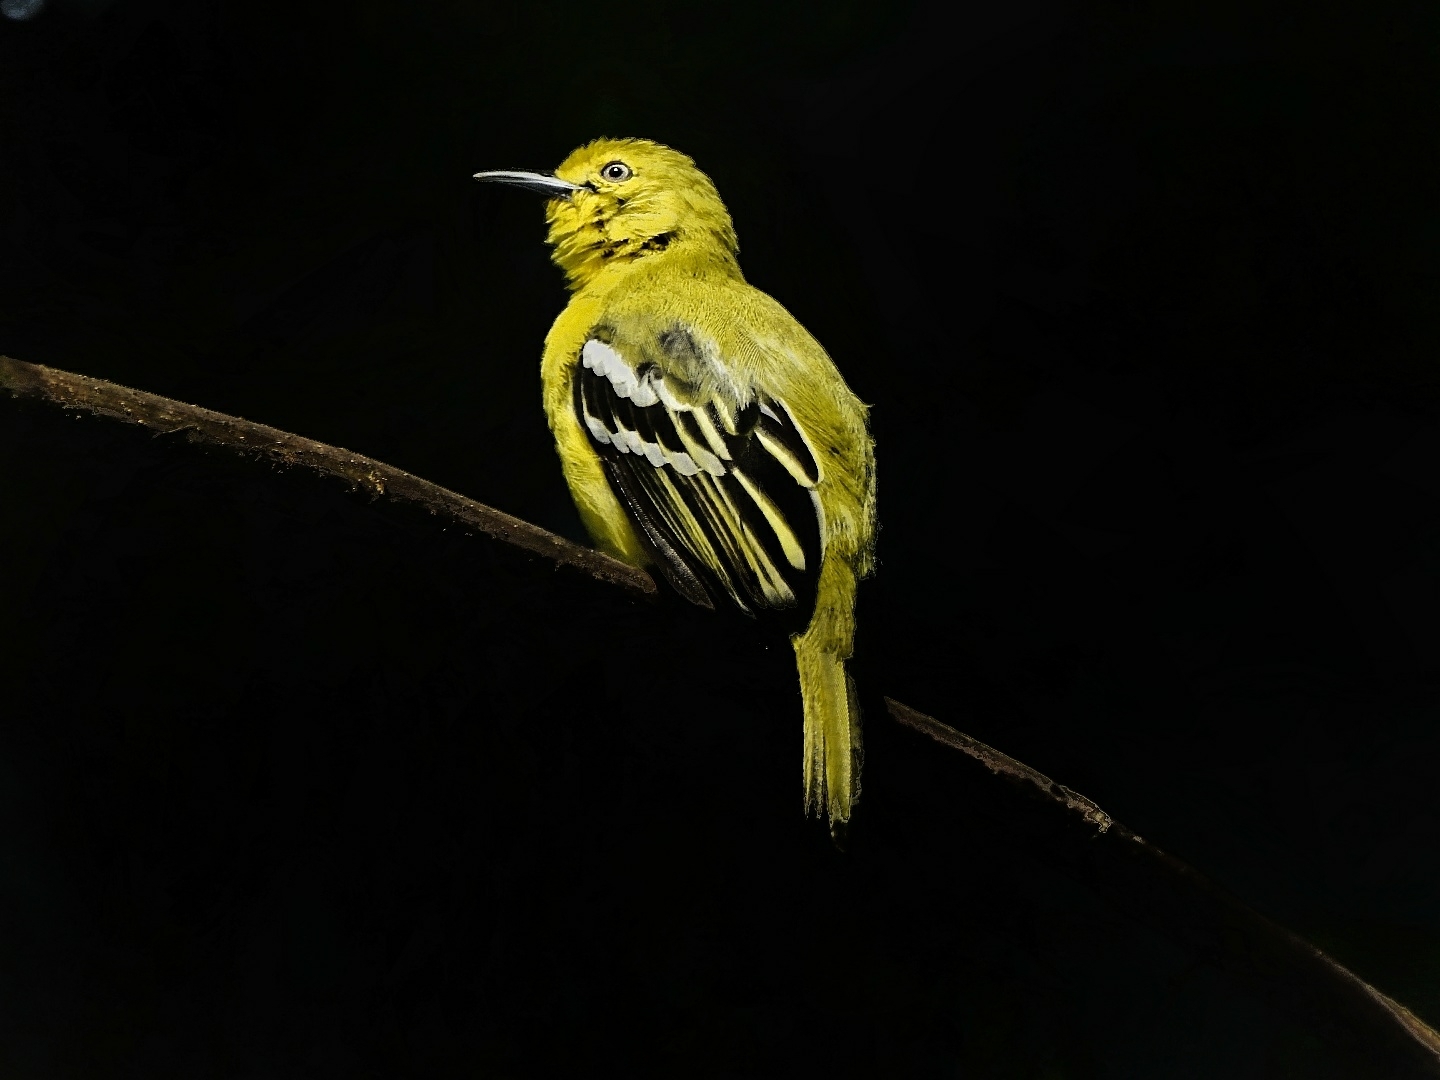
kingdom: Animalia
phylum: Chordata
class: Aves
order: Passeriformes
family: Aegithinidae
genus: Aegithina
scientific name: Aegithina tiphia
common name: Common iora
